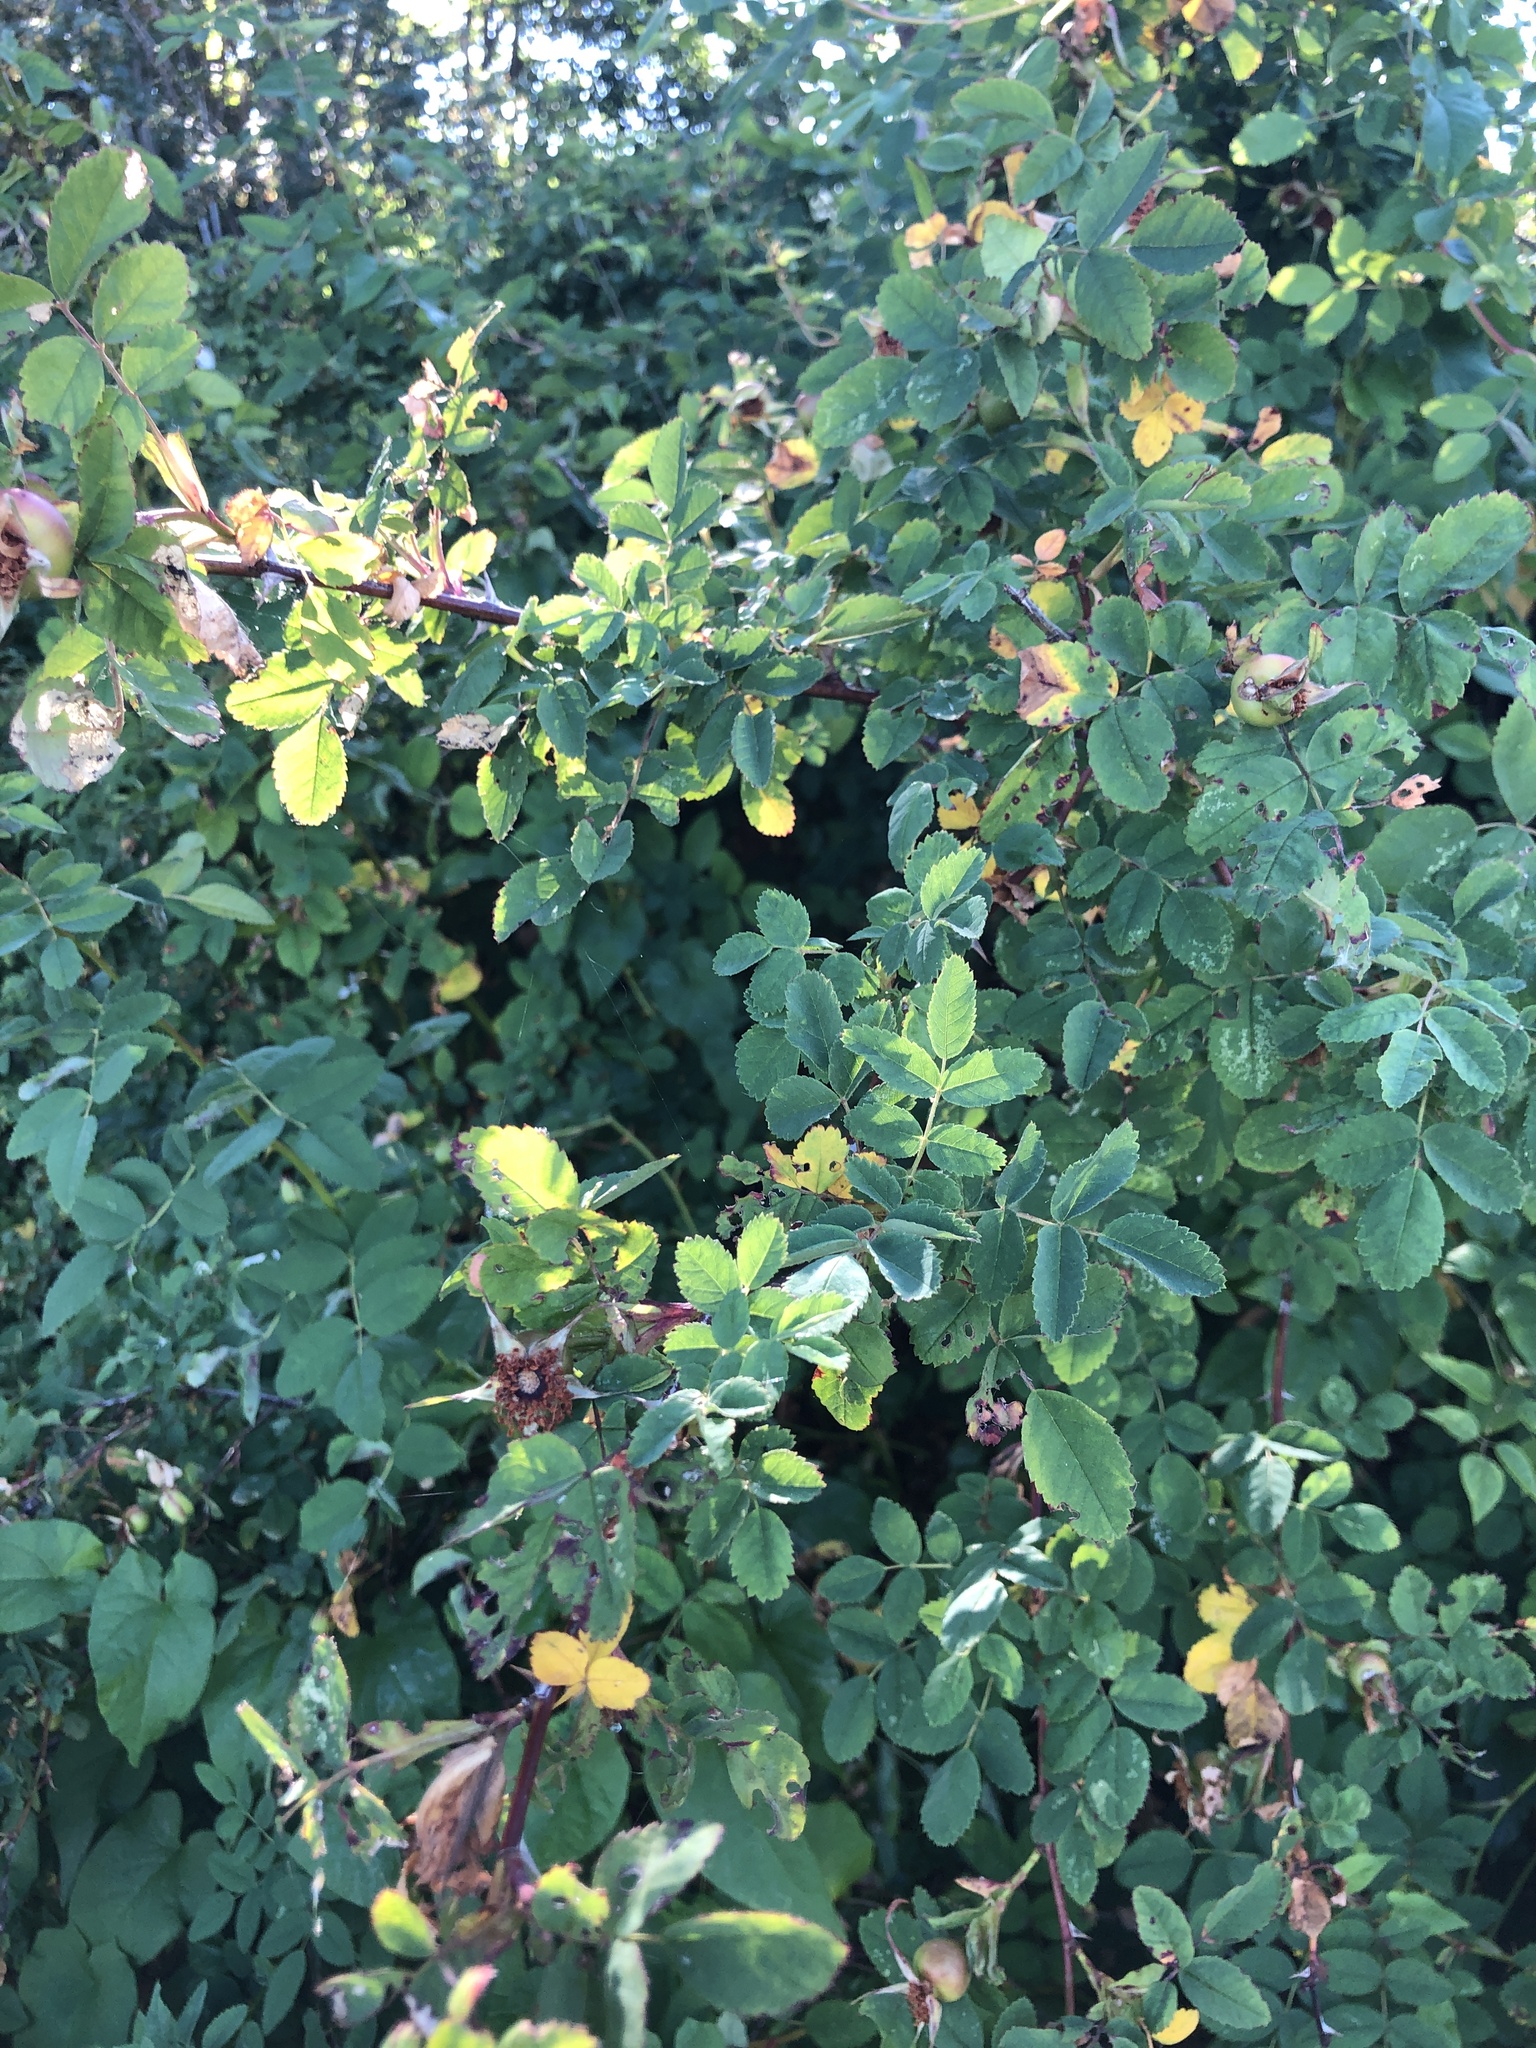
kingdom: Plantae
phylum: Tracheophyta
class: Magnoliopsida
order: Rosales
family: Rosaceae
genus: Rosa
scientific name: Rosa nutkana
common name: Nootka rose
